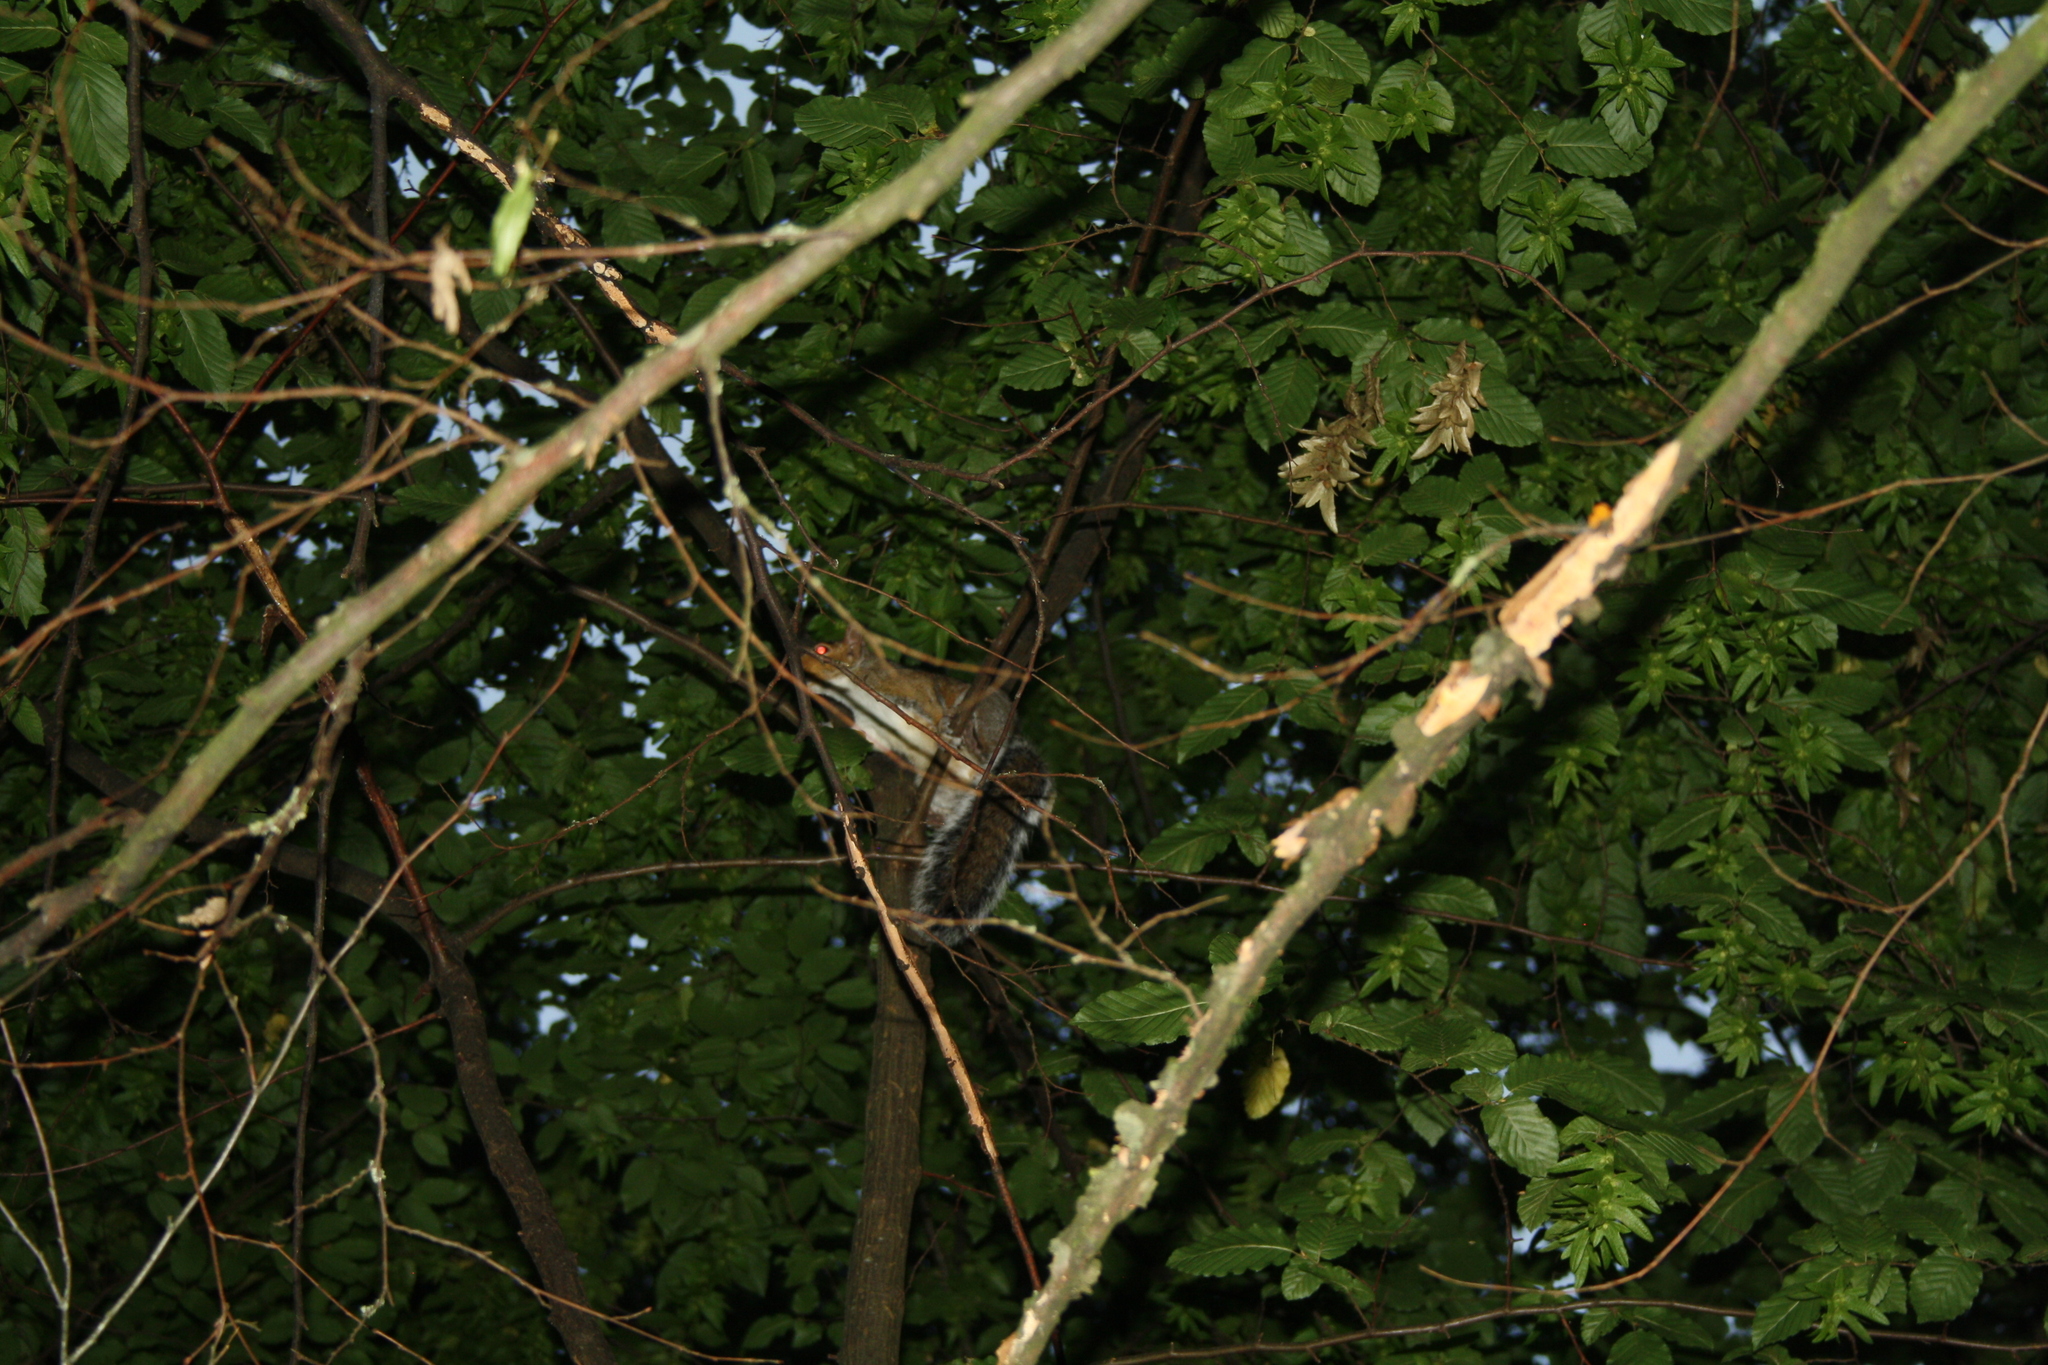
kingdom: Animalia
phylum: Chordata
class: Mammalia
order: Rodentia
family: Sciuridae
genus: Sciurus
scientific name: Sciurus carolinensis
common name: Eastern gray squirrel
